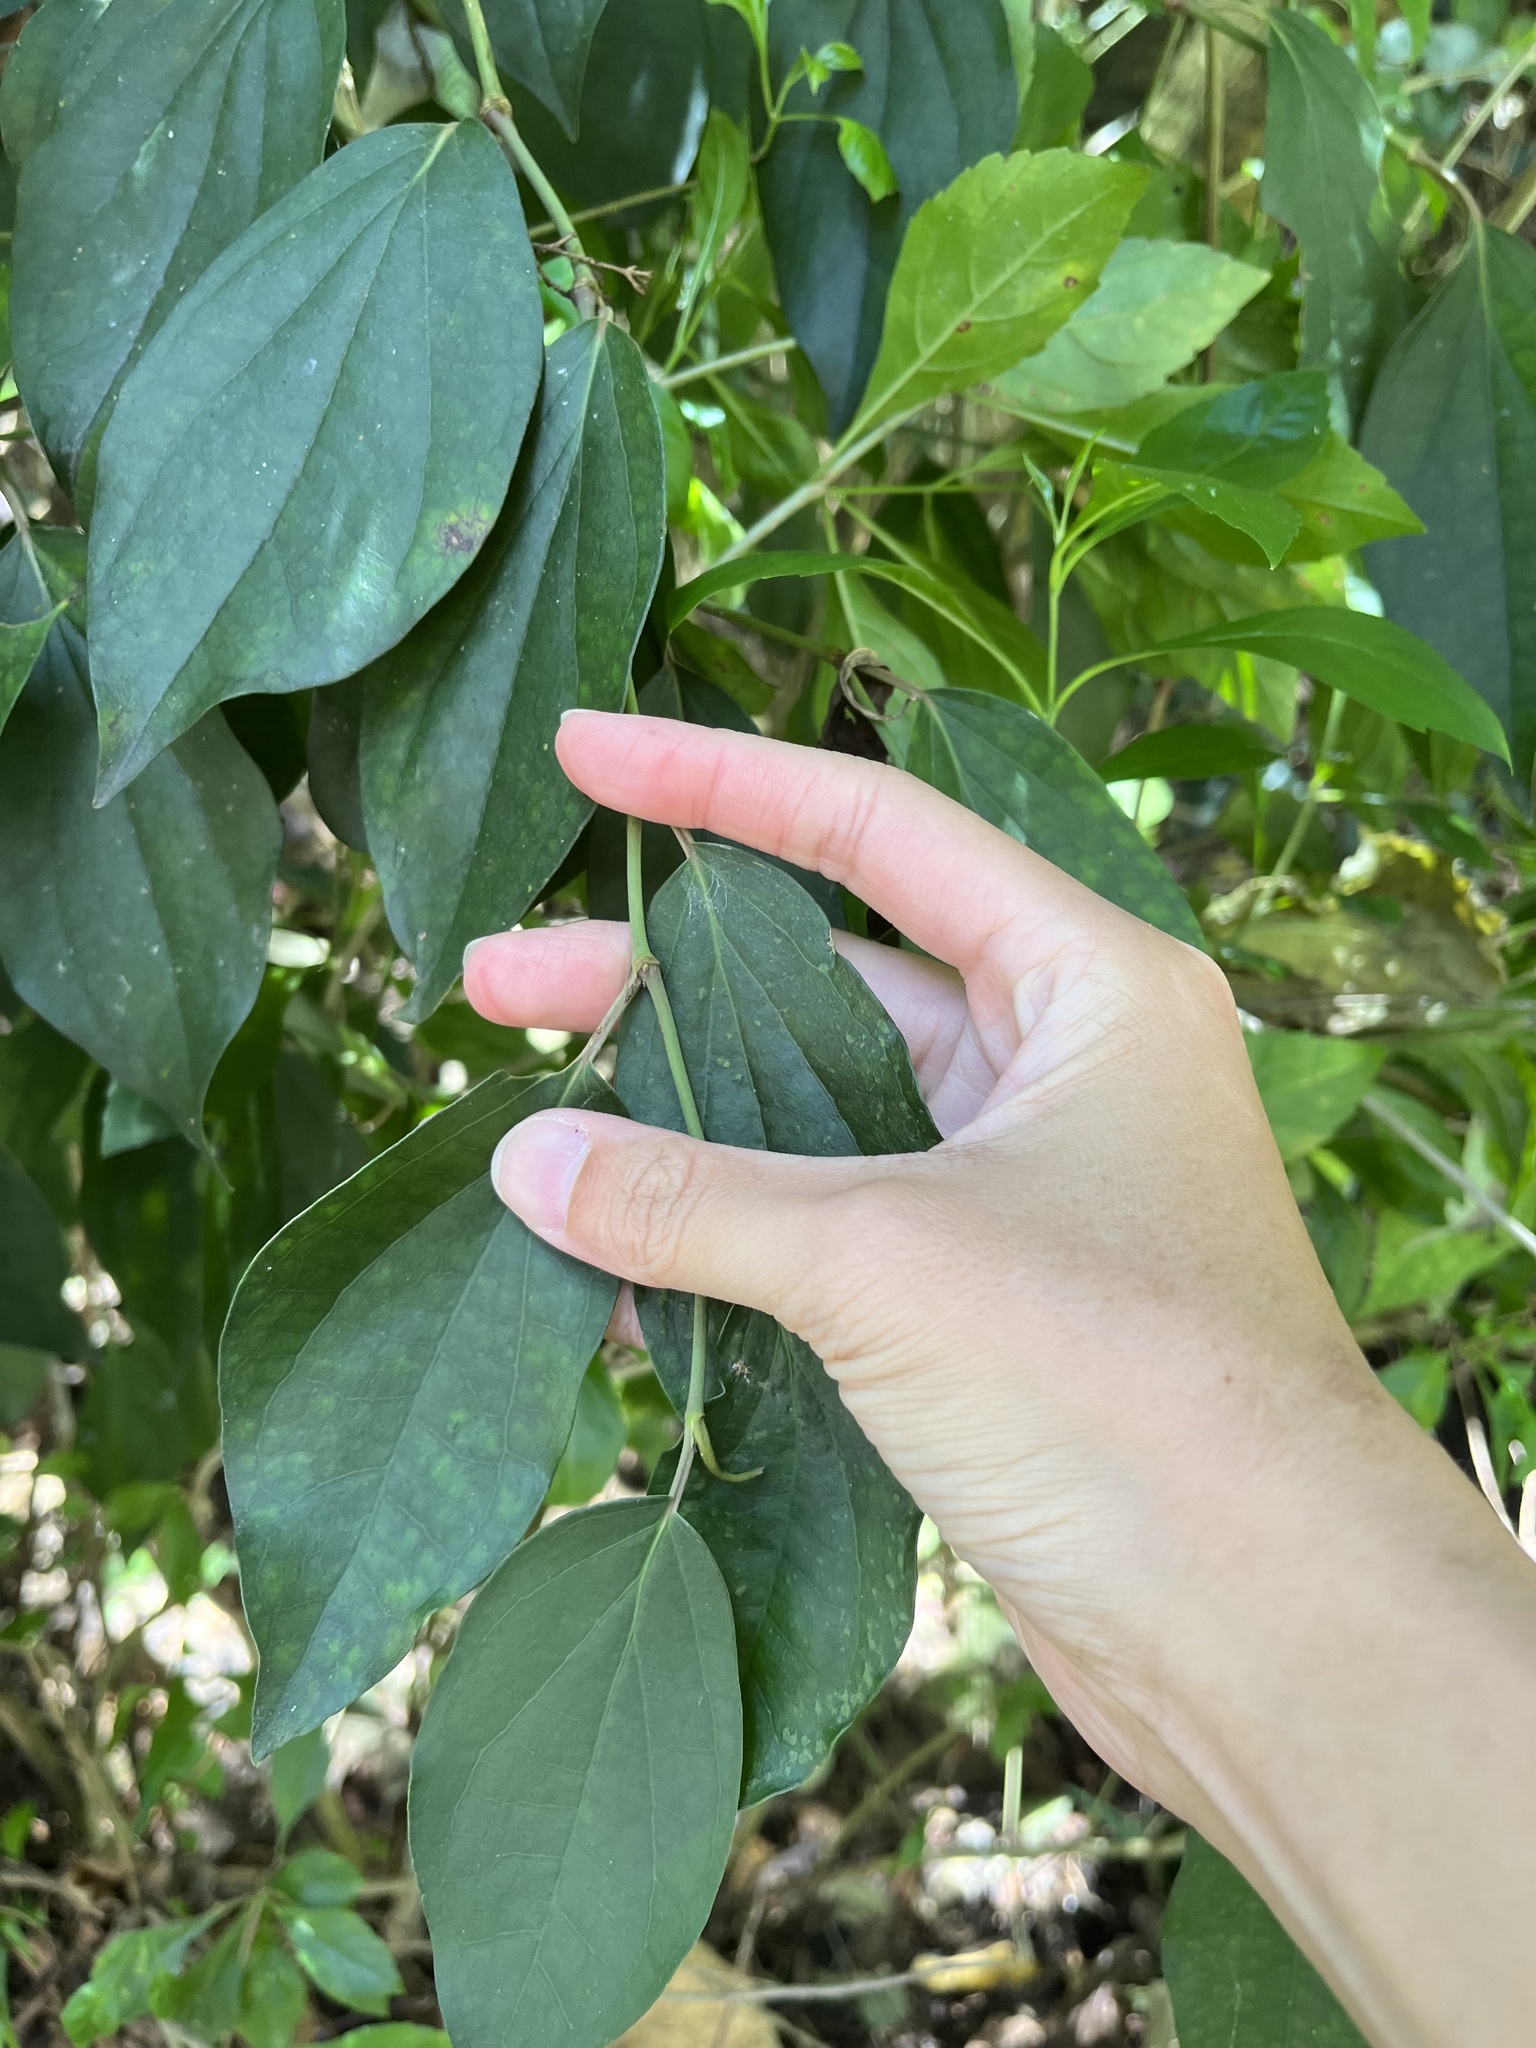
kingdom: Plantae
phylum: Tracheophyta
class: Magnoliopsida
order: Piperales
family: Piperaceae
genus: Piper
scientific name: Piper kadsura
